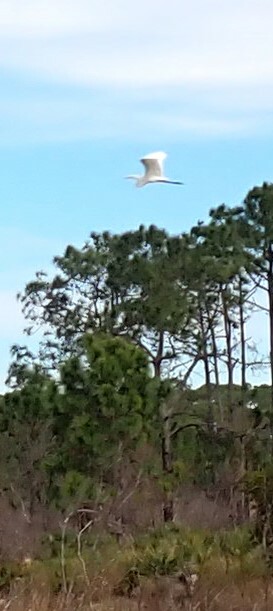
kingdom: Animalia
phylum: Chordata
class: Aves
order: Pelecaniformes
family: Ardeidae
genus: Ardea
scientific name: Ardea alba
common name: Great egret
